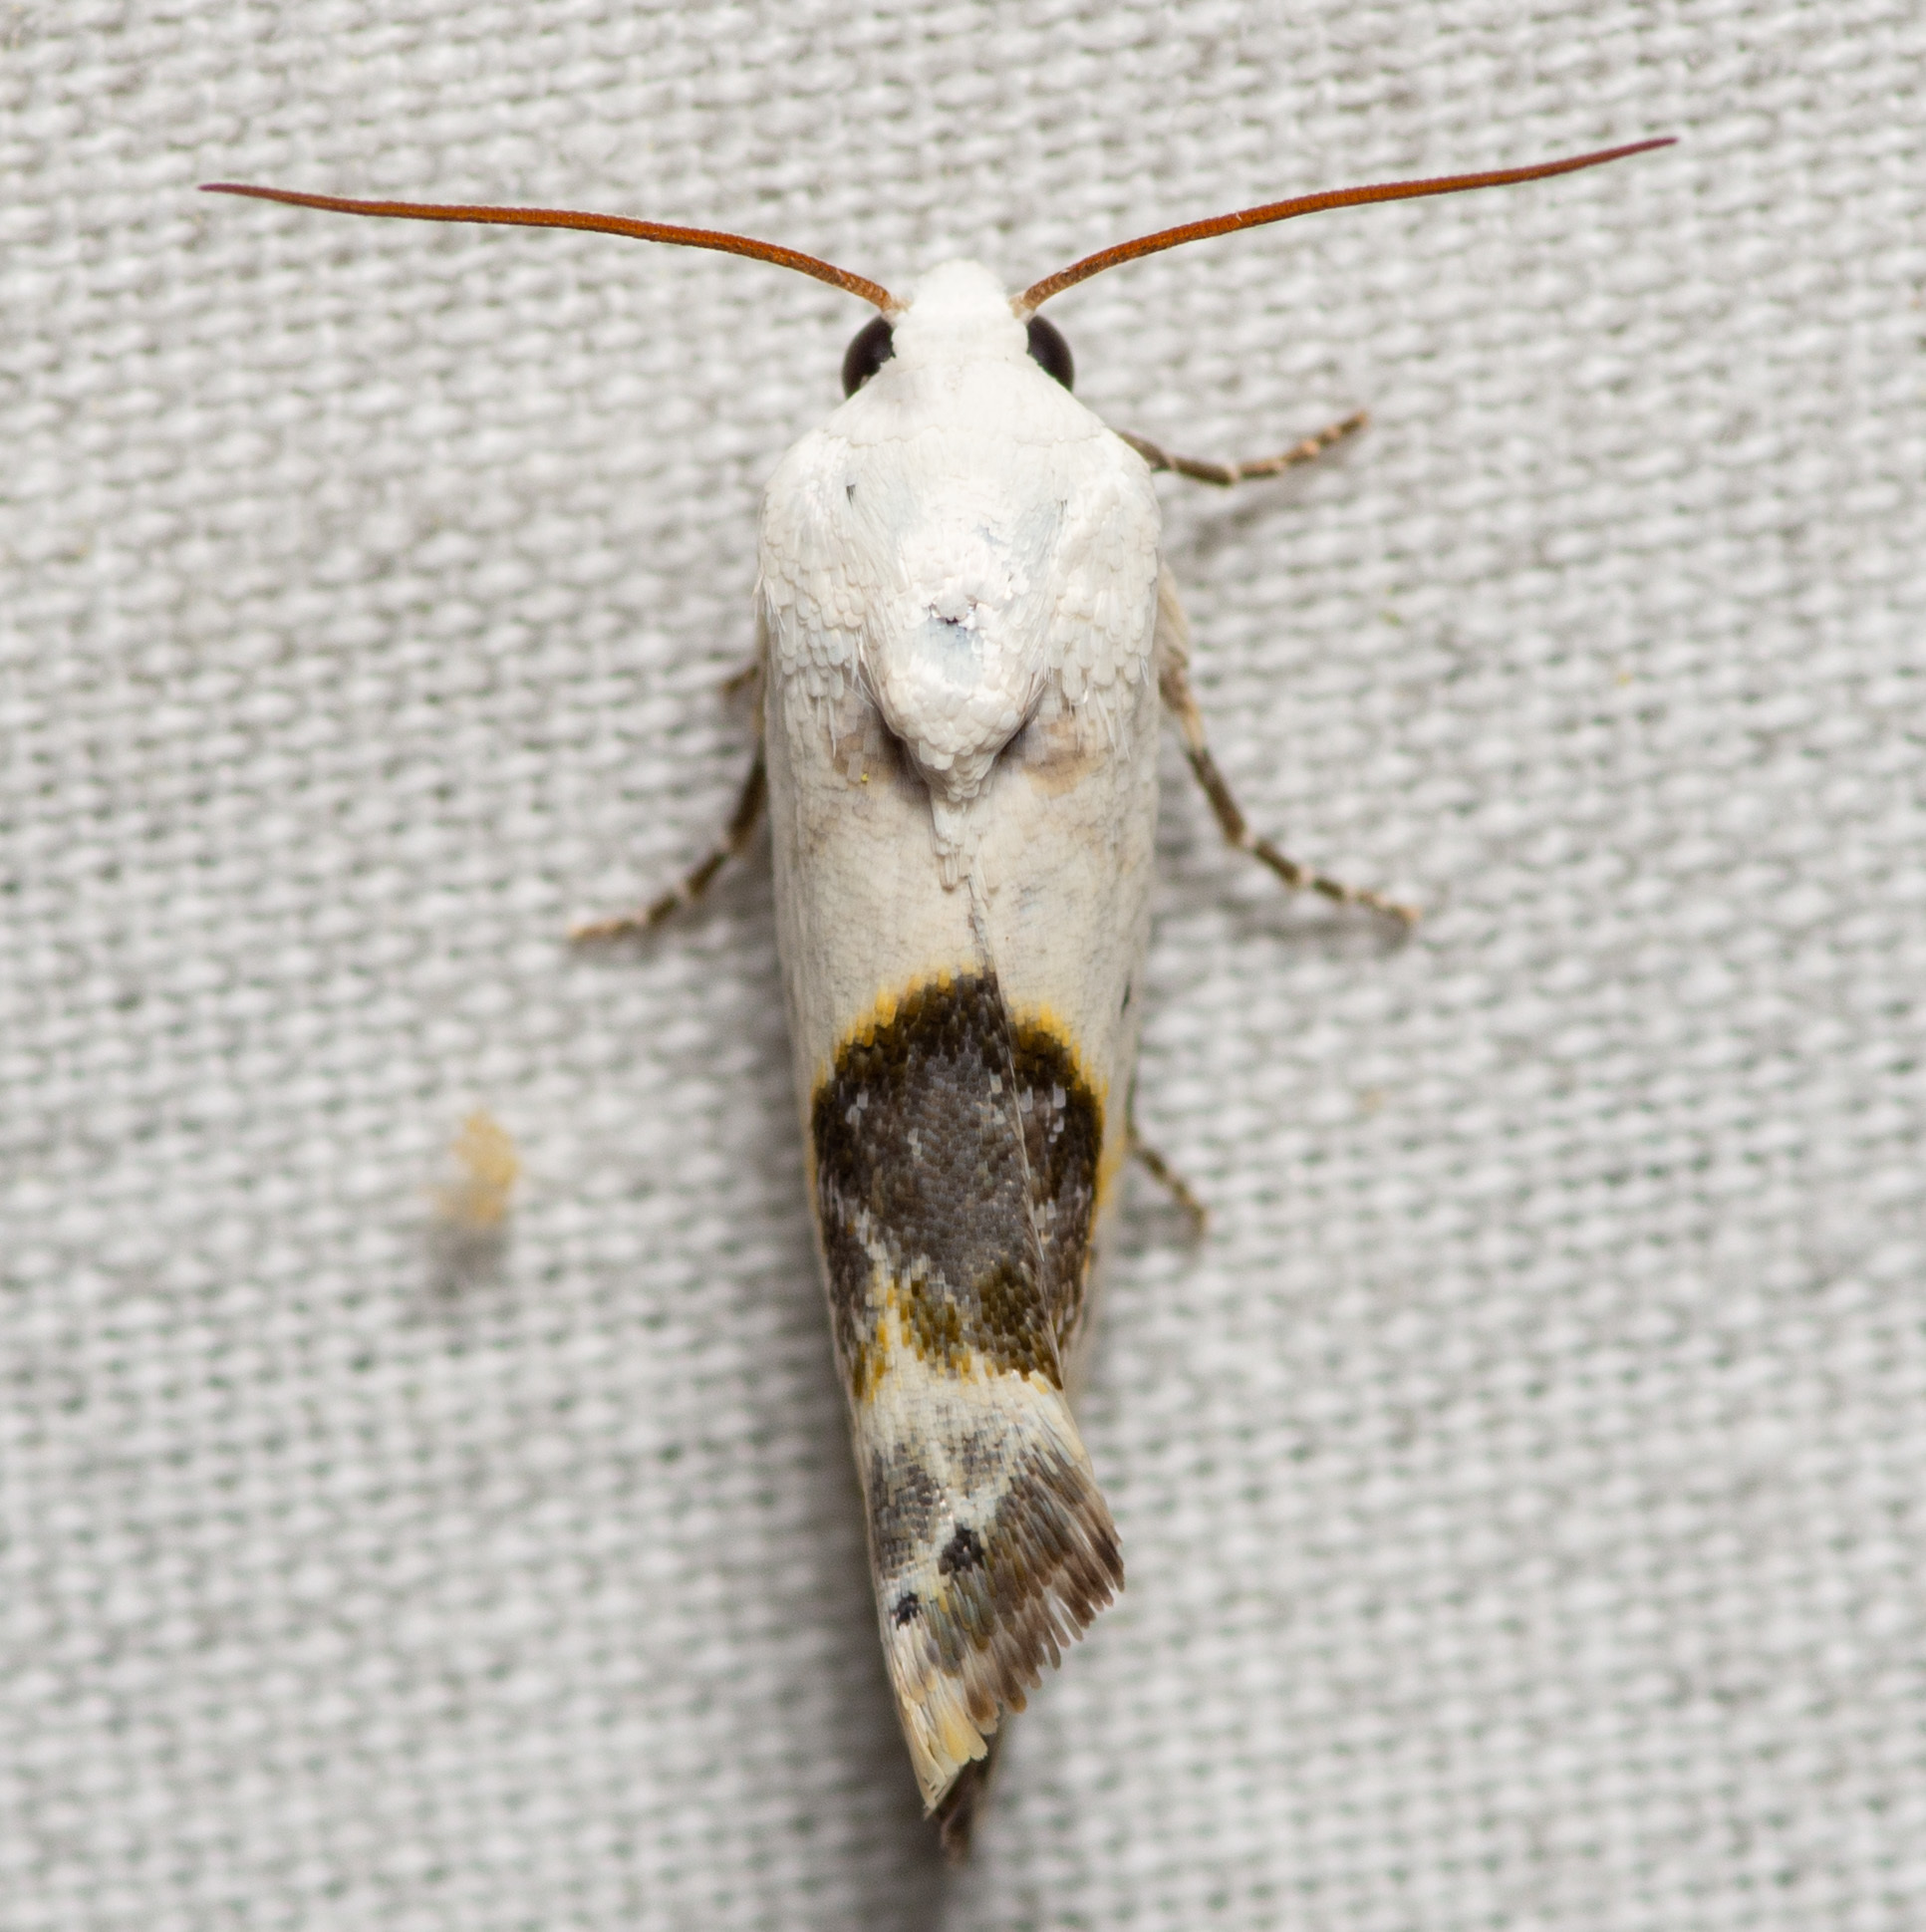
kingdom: Animalia
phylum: Arthropoda
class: Insecta
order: Lepidoptera
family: Noctuidae
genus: Acontia
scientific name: Acontia candefacta
